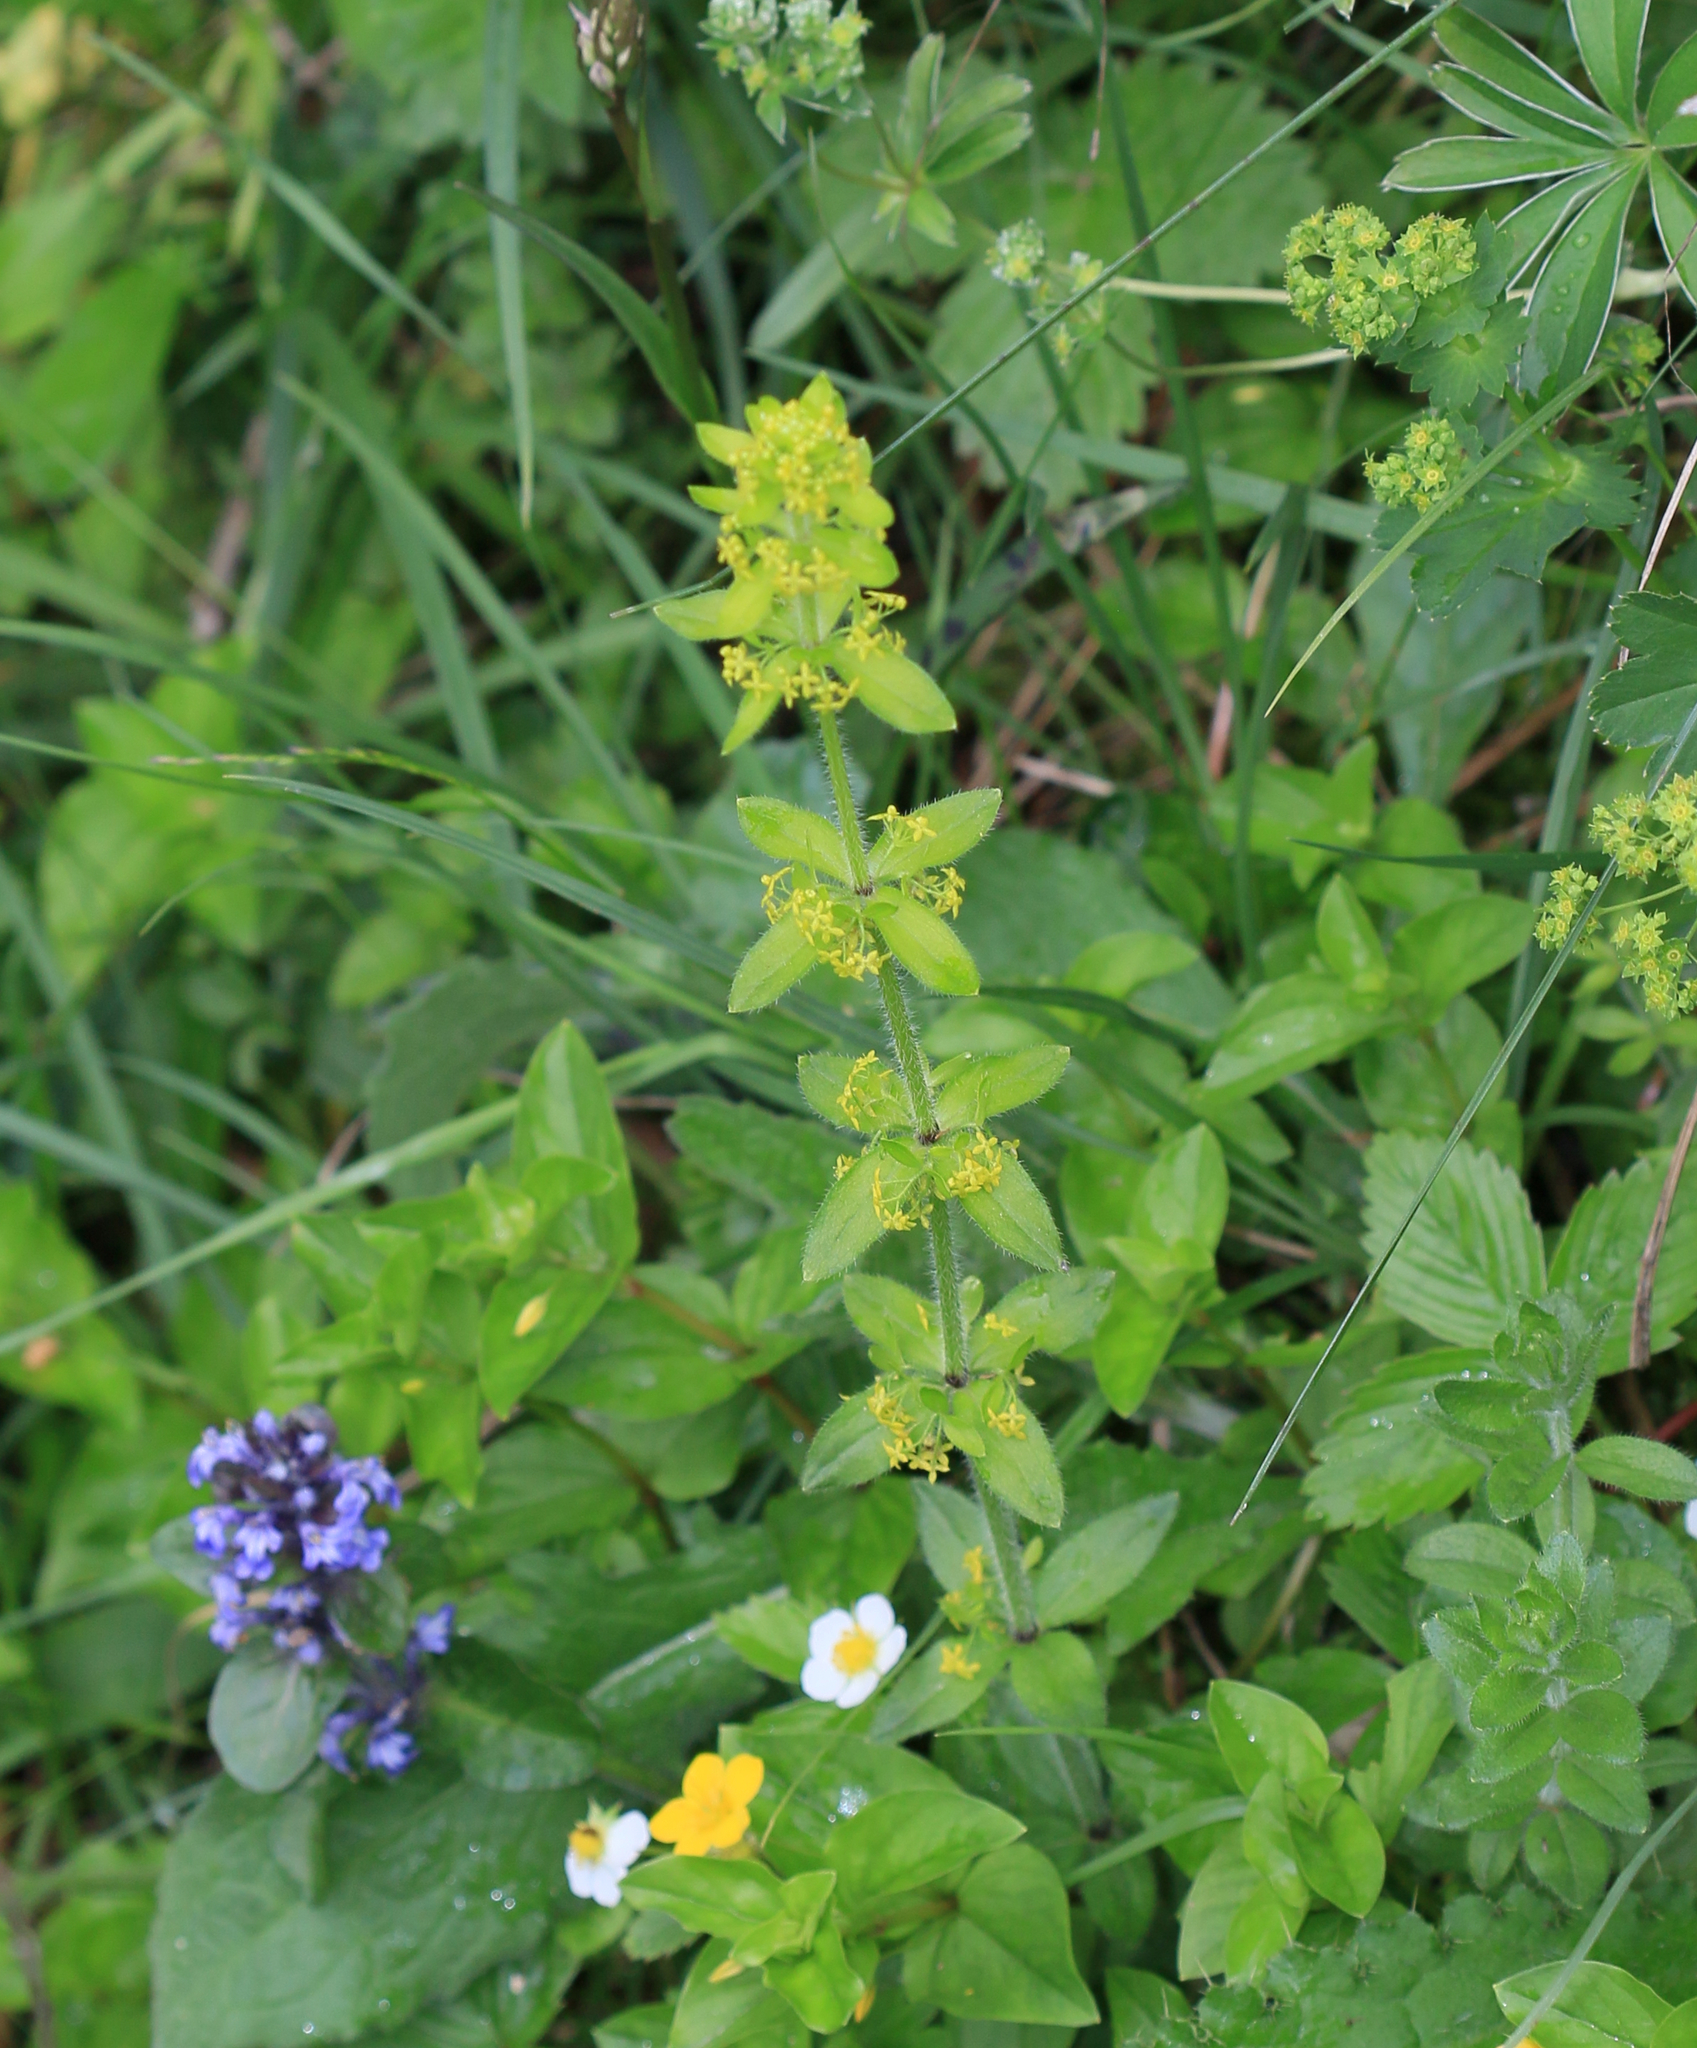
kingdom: Plantae
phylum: Tracheophyta
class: Magnoliopsida
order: Gentianales
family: Rubiaceae
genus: Cruciata
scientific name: Cruciata laevipes
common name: Crosswort
